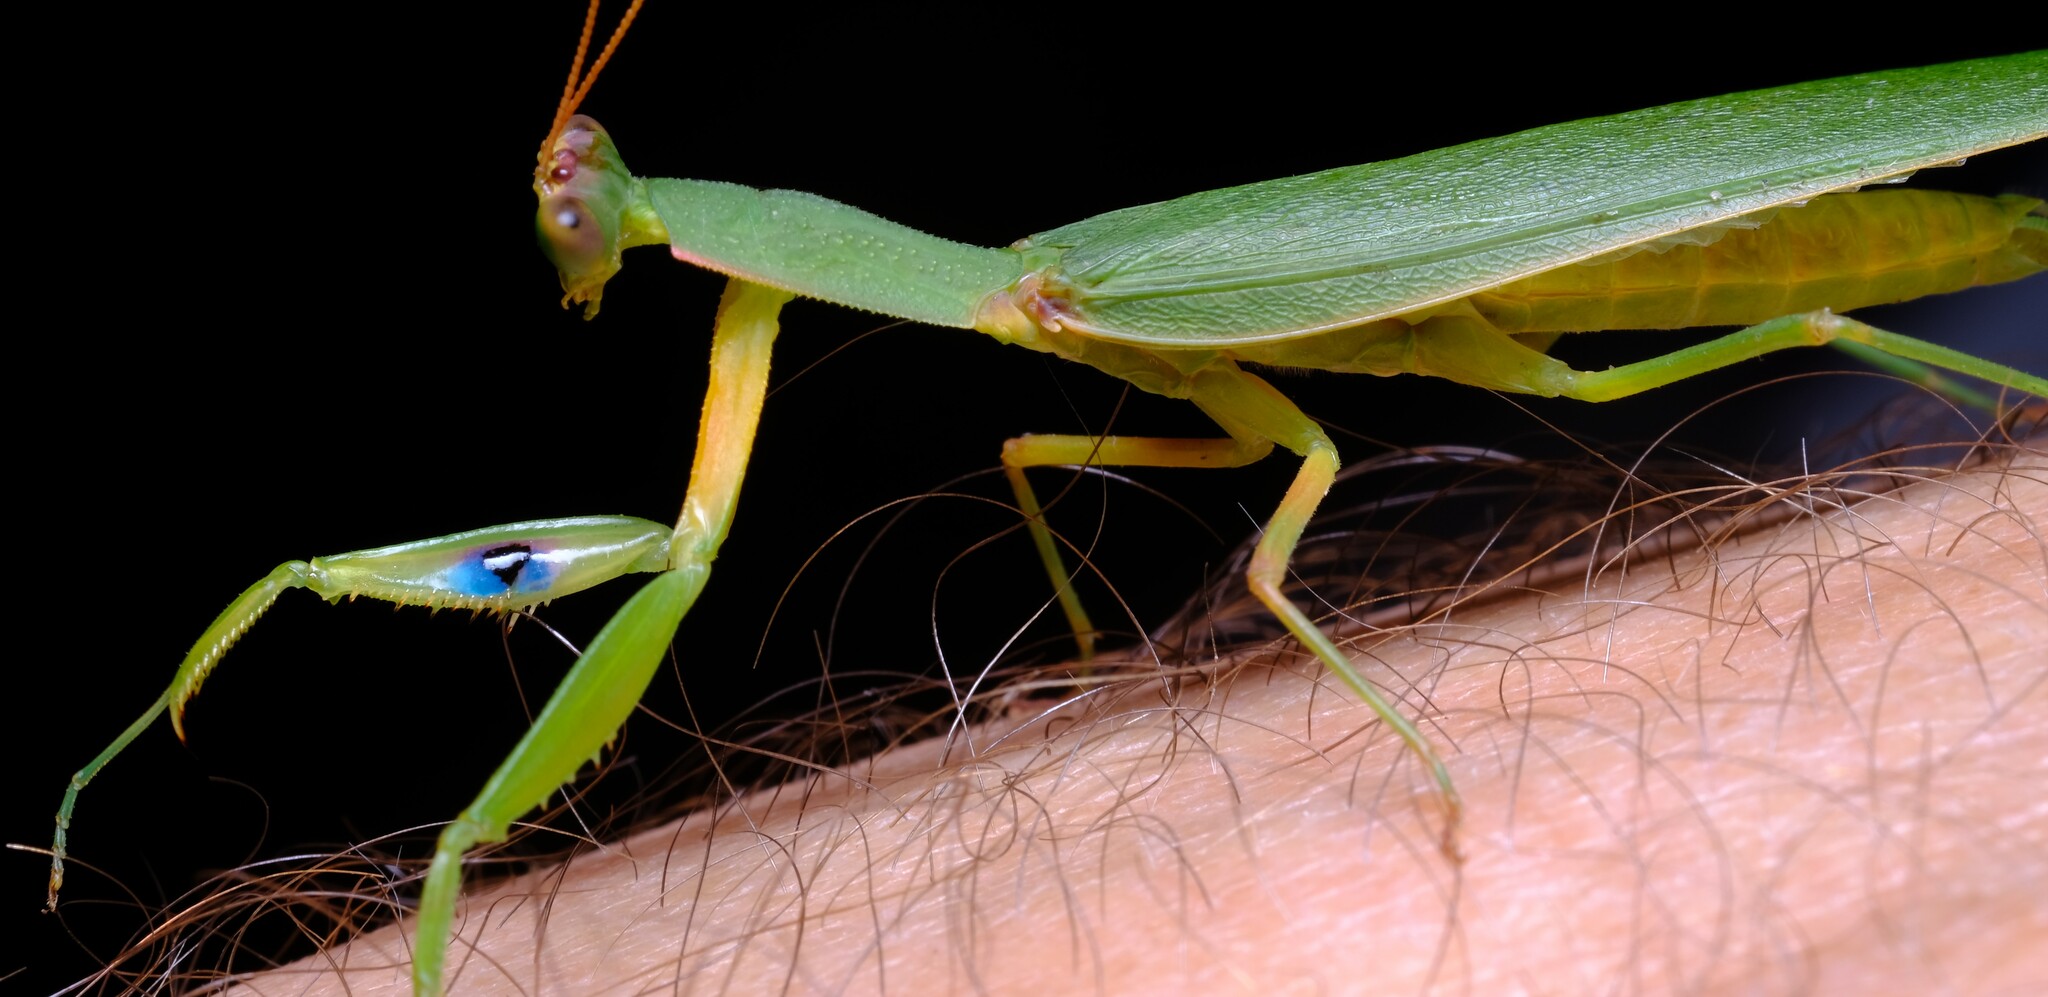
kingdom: Animalia
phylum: Arthropoda
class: Insecta
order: Mantodea
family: Mantidae
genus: Orthodera
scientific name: Orthodera ministralis
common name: Mantis
